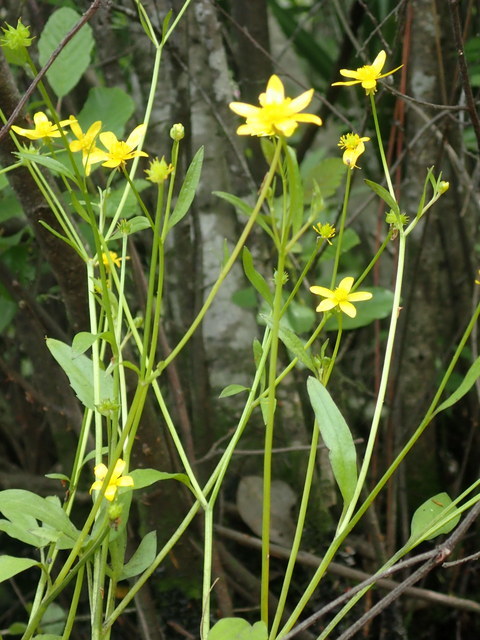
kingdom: Plantae
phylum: Tracheophyta
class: Magnoliopsida
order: Ranunculales
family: Ranunculaceae
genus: Ranunculus
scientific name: Ranunculus hispidus
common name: Bristly buttercup
